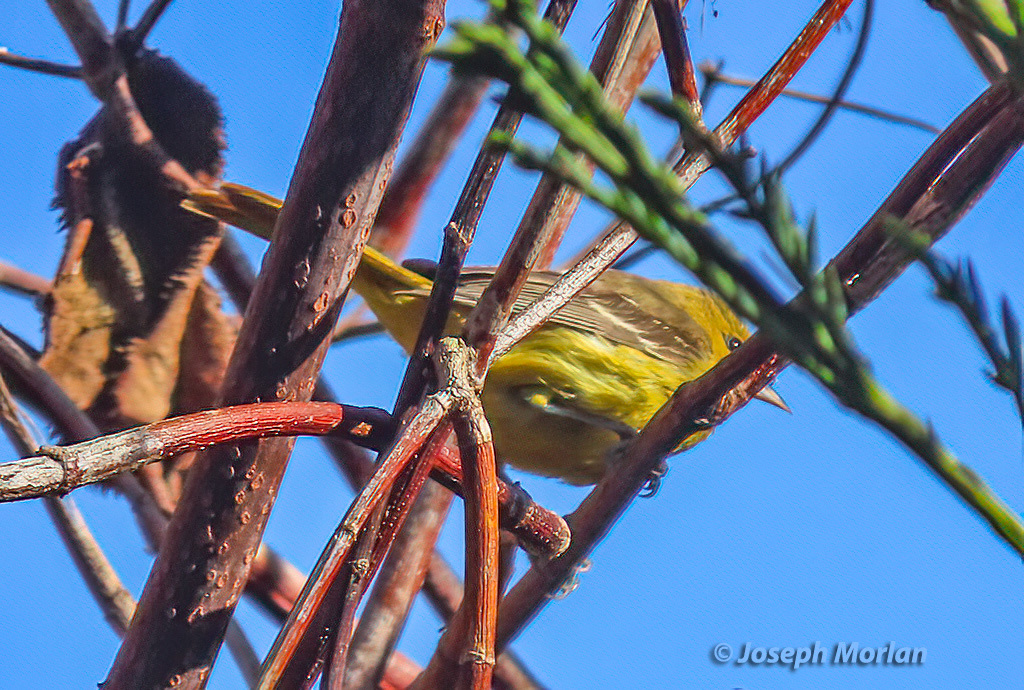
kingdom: Animalia
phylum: Chordata
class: Aves
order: Passeriformes
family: Icteridae
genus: Icterus
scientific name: Icterus spurius
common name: Orchard oriole
